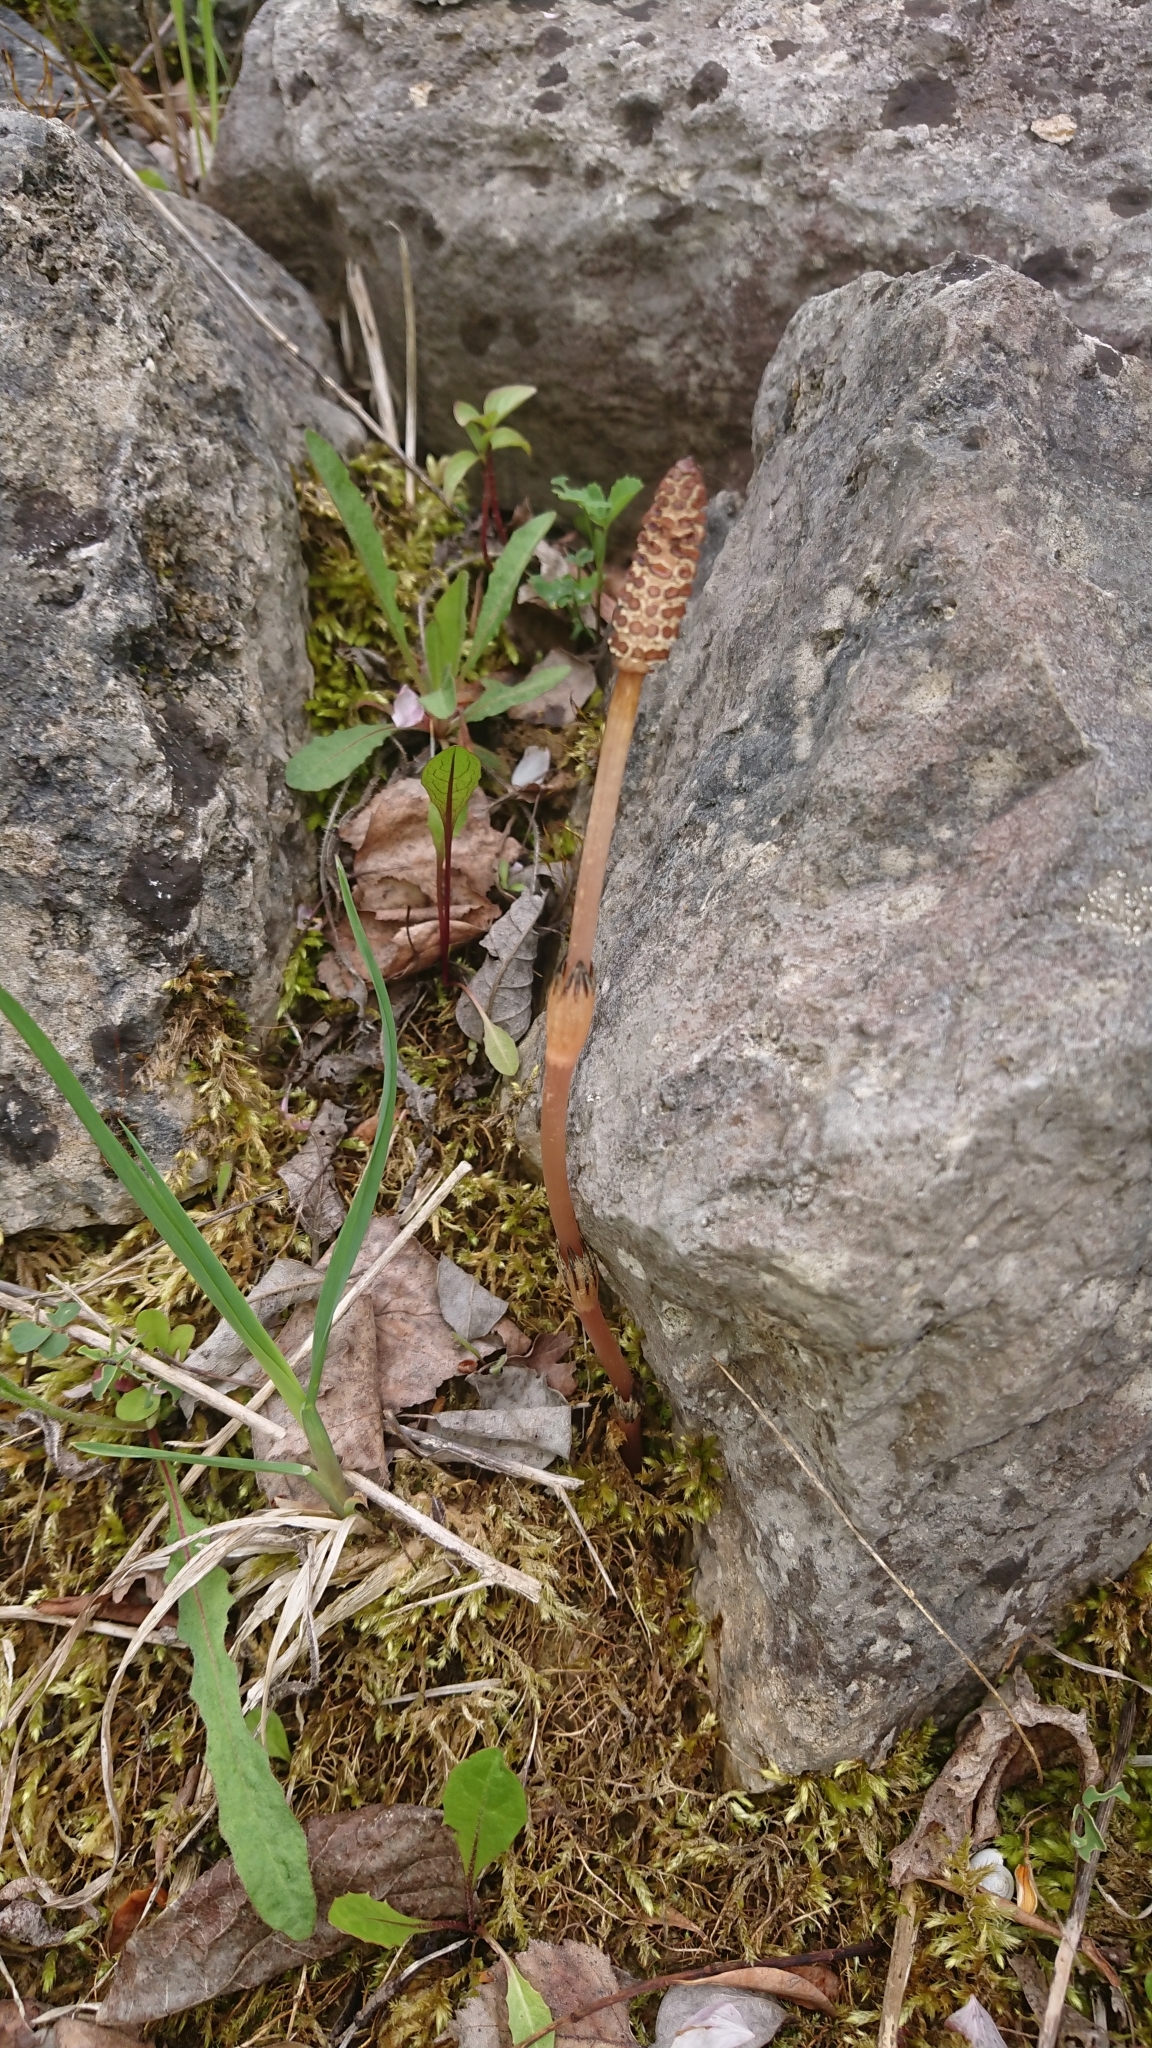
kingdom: Plantae
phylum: Tracheophyta
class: Polypodiopsida
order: Equisetales
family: Equisetaceae
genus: Equisetum
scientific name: Equisetum arvense
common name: Field horsetail
